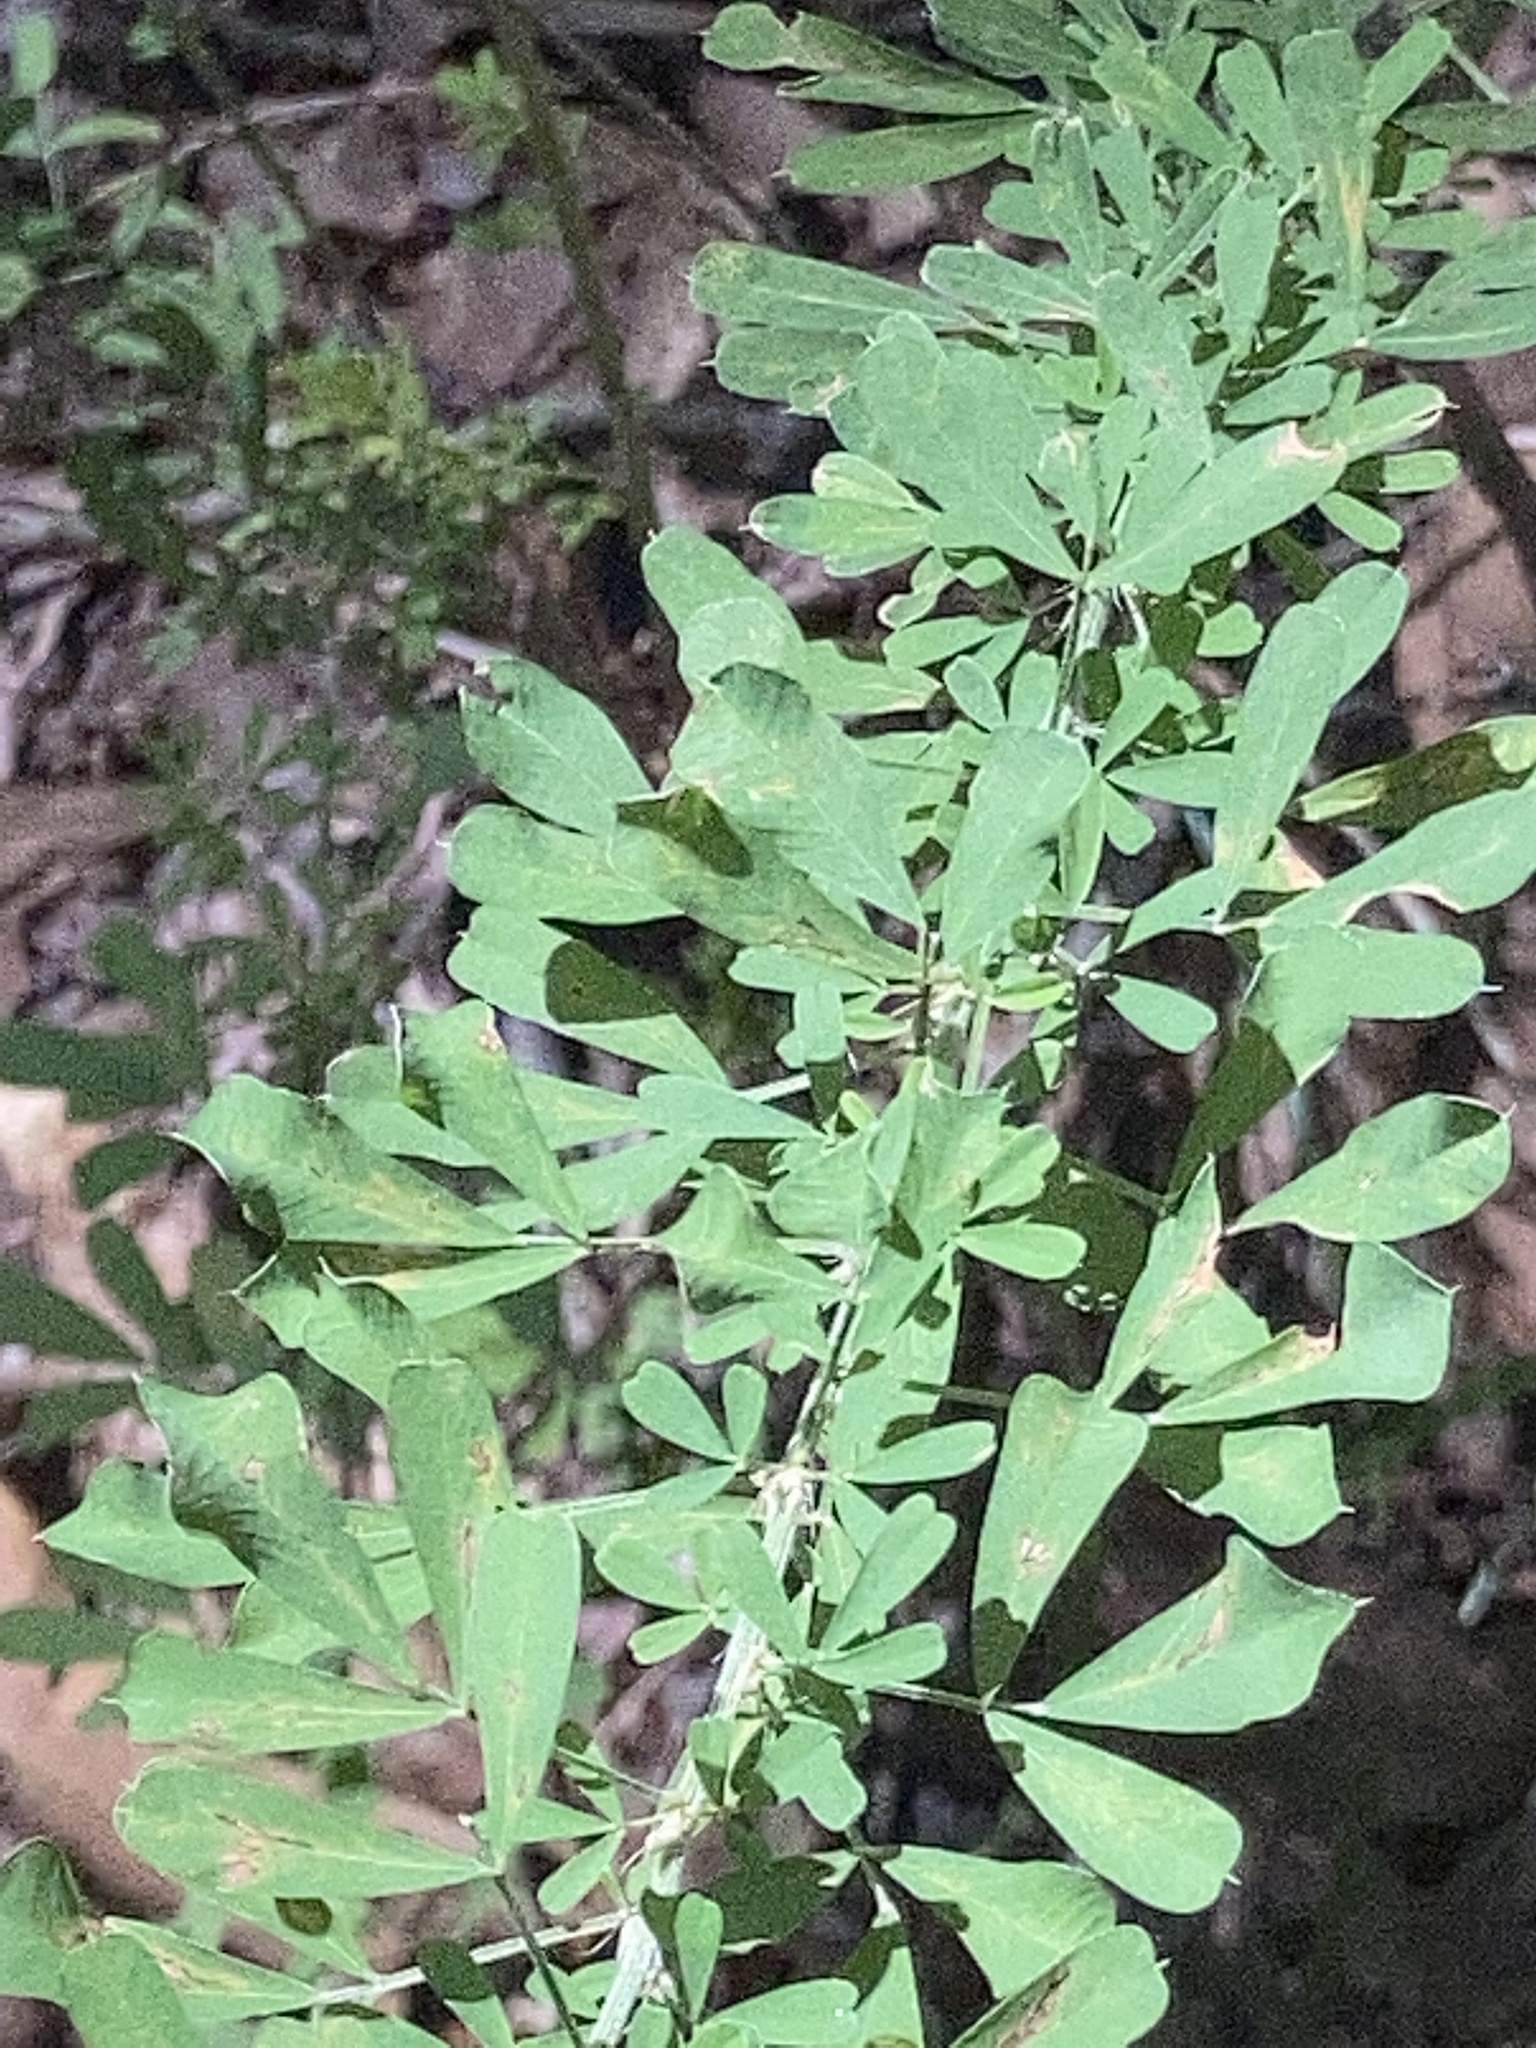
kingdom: Plantae
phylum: Tracheophyta
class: Magnoliopsida
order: Fabales
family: Fabaceae
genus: Lespedeza
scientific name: Lespedeza cuneata
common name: Chinese bush-clover
